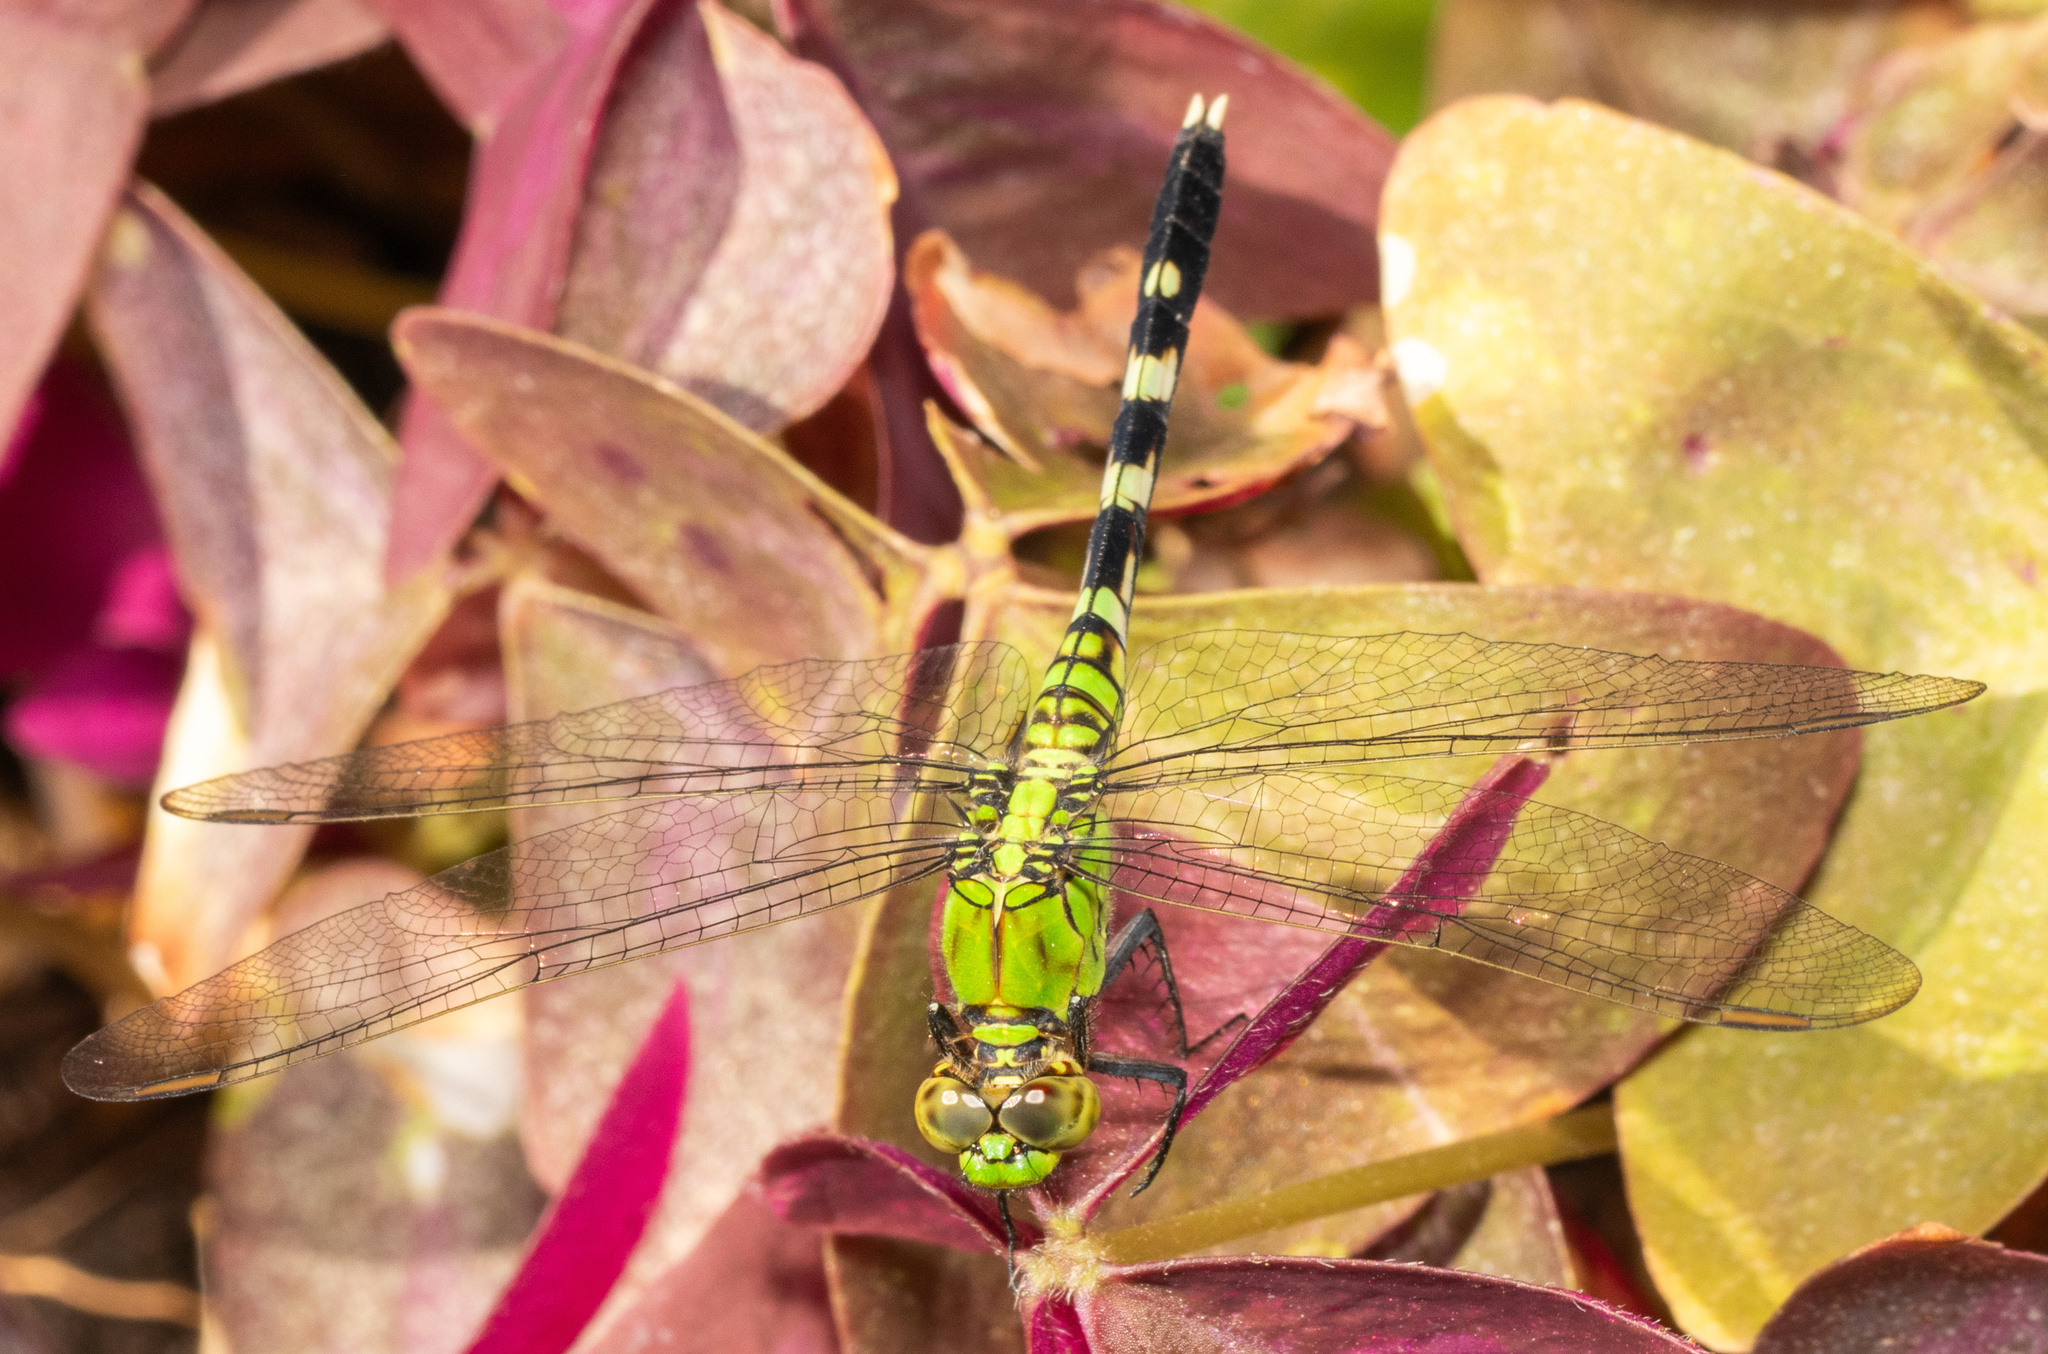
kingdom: Animalia
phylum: Arthropoda
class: Insecta
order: Odonata
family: Libellulidae
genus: Erythemis
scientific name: Erythemis simplicicollis
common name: Eastern pondhawk
